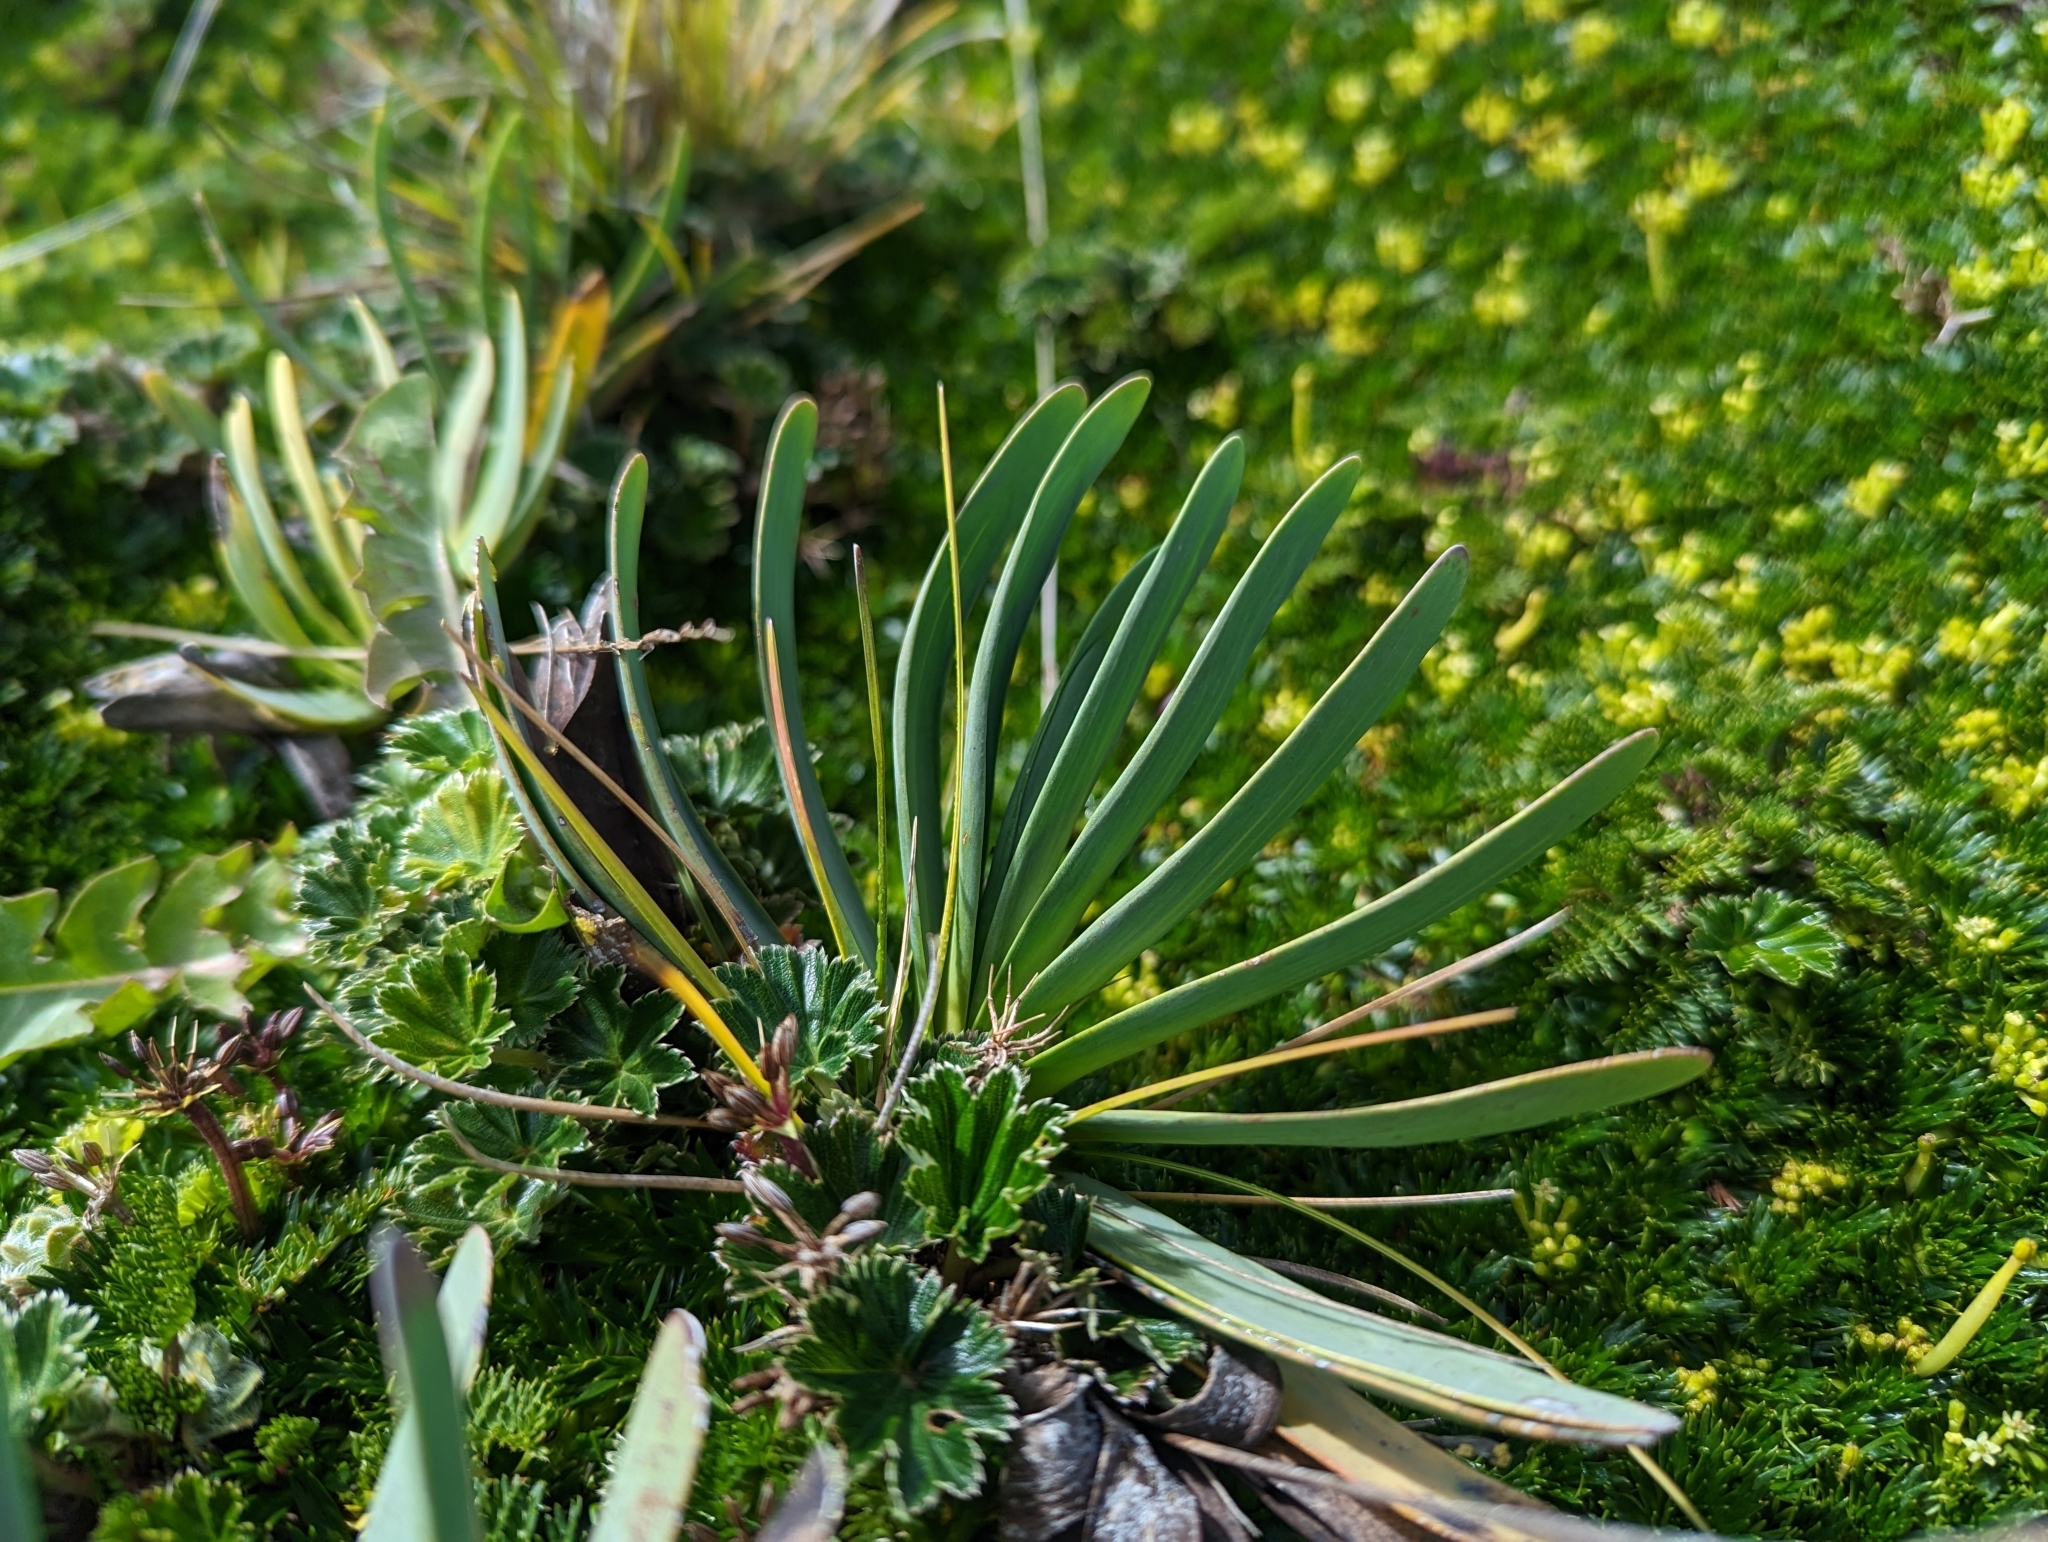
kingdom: Plantae
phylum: Tracheophyta
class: Magnoliopsida
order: Asterales
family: Asteraceae
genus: Rockhausenia
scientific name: Rockhausenia nubigena
